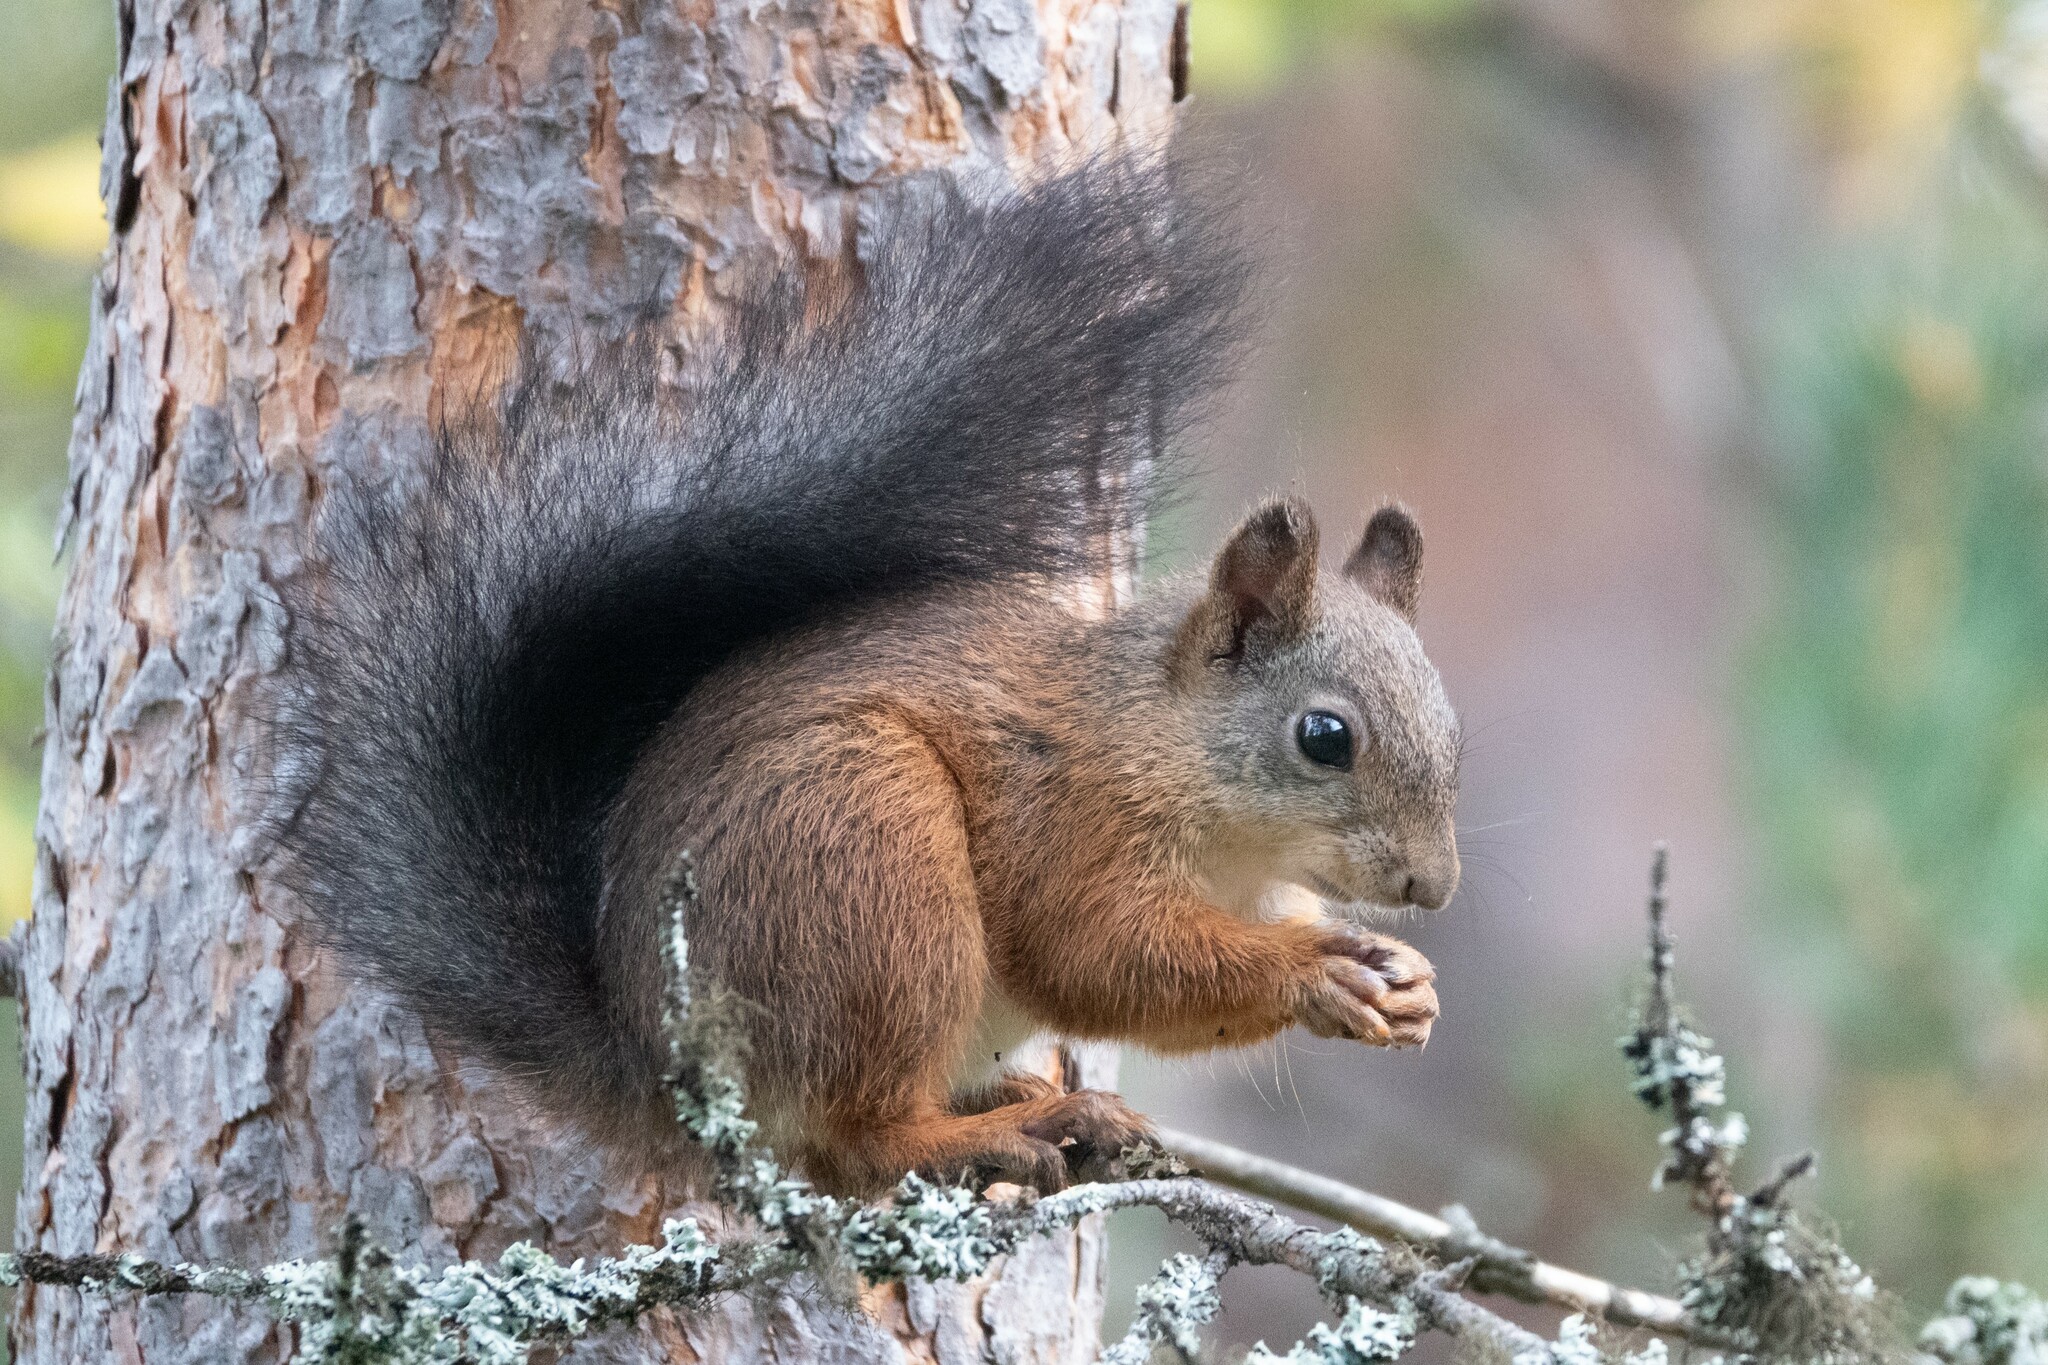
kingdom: Animalia
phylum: Chordata
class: Mammalia
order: Rodentia
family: Sciuridae
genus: Sciurus
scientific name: Sciurus vulgaris
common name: Eurasian red squirrel
